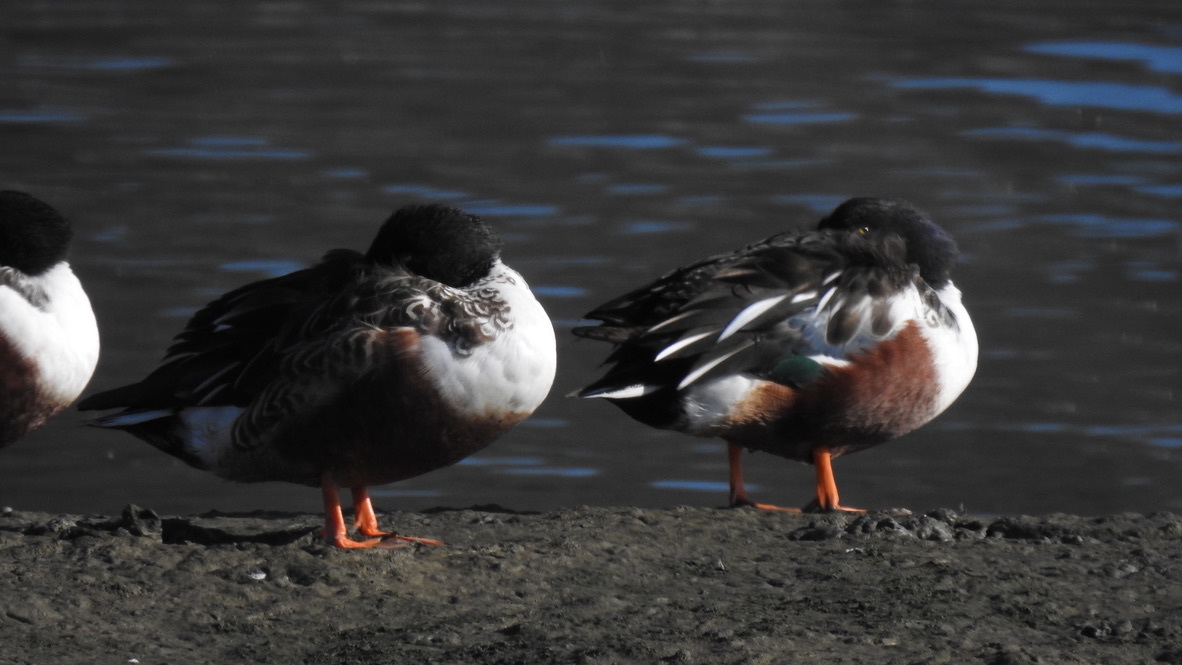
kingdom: Animalia
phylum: Chordata
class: Aves
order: Anseriformes
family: Anatidae
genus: Spatula
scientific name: Spatula clypeata
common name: Northern shoveler
